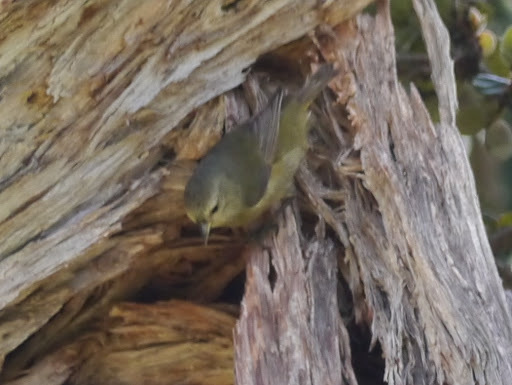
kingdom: Animalia
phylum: Chordata
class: Aves
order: Passeriformes
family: Fringillidae
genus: Loxops
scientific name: Loxops mana
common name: Hawaii creeper
